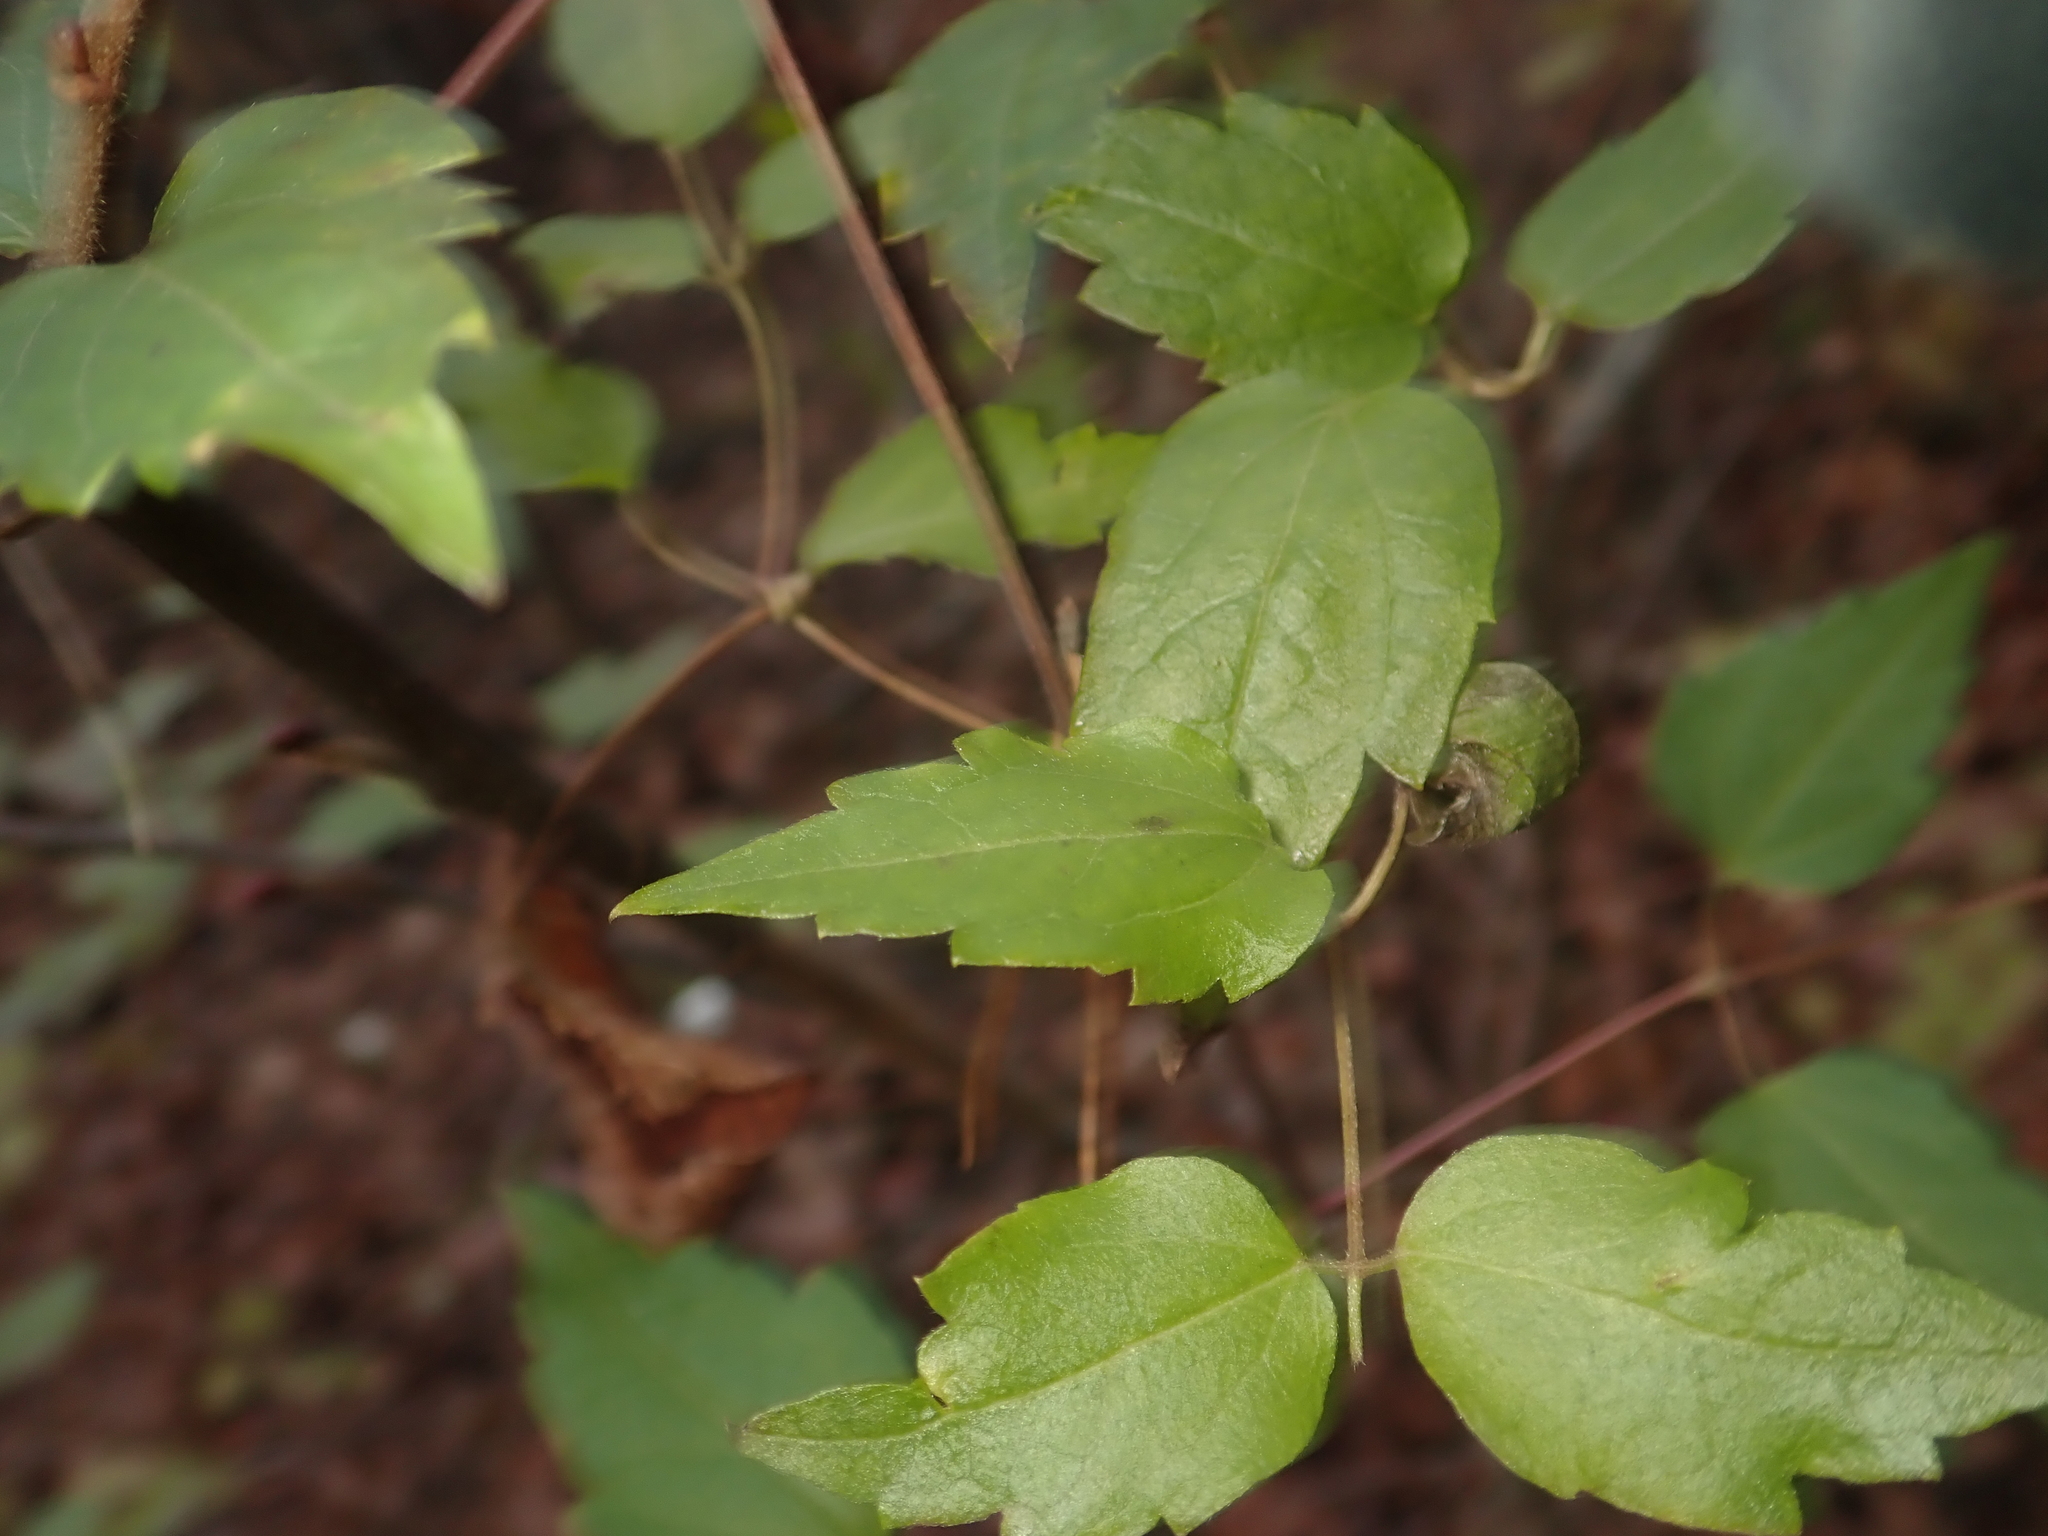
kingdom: Plantae
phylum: Tracheophyta
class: Magnoliopsida
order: Ranunculales
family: Ranunculaceae
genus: Clematis
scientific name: Clematis vitalba
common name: Evergreen clematis
